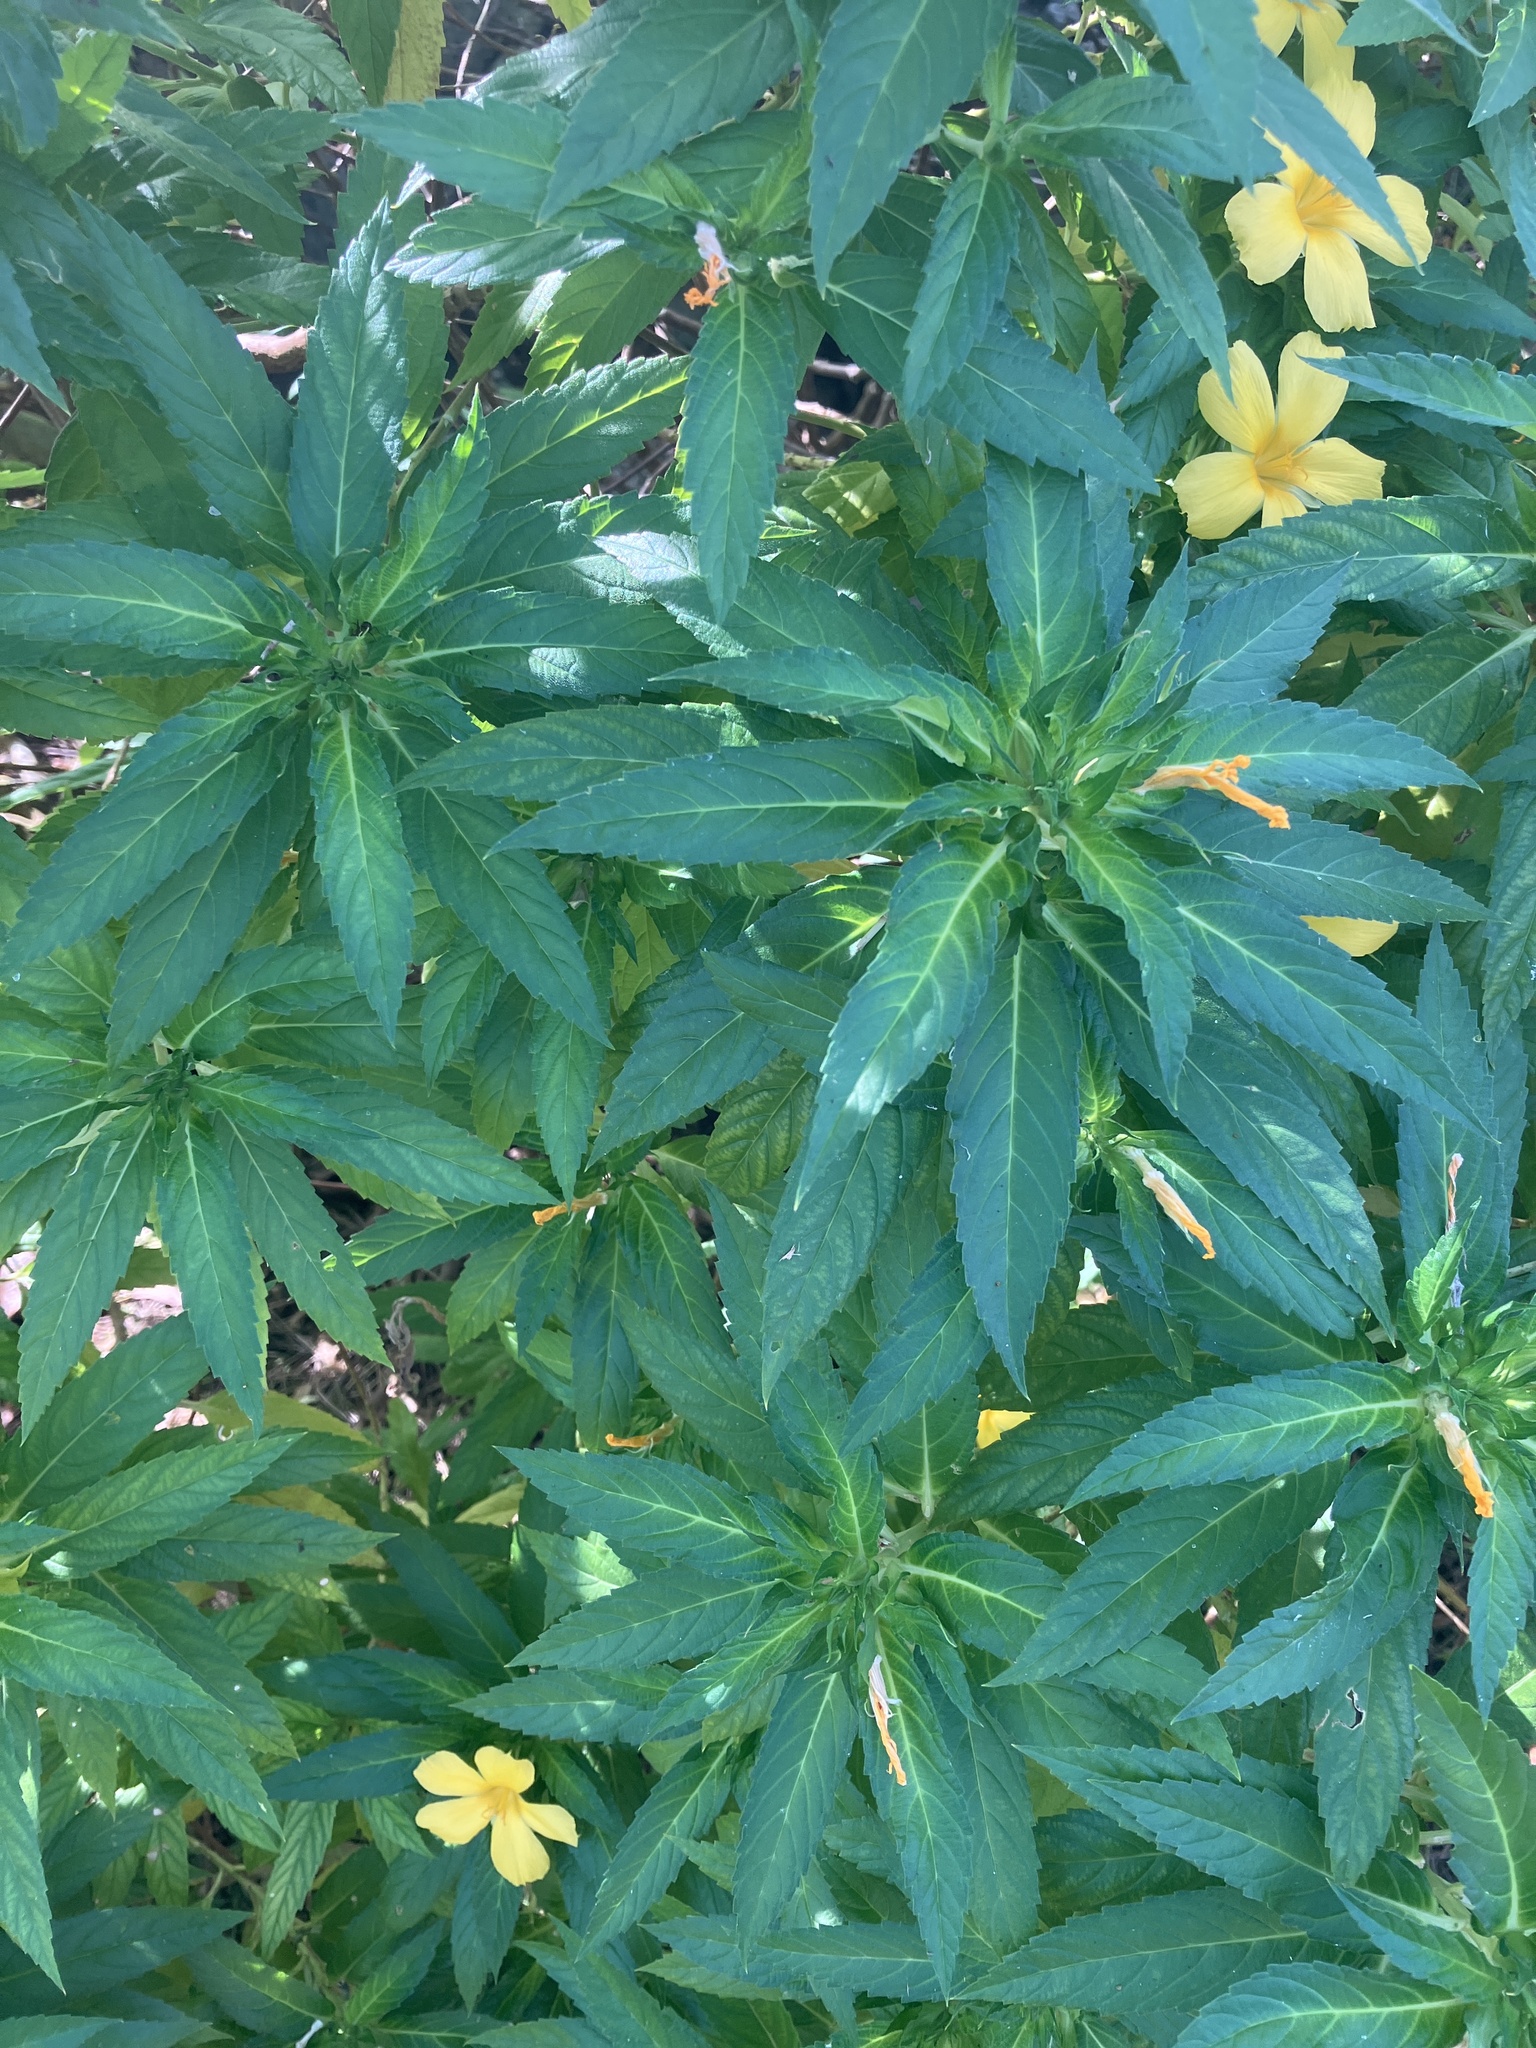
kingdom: Plantae
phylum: Tracheophyta
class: Magnoliopsida
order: Malpighiales
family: Turneraceae
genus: Turnera
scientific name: Turnera ulmifolia
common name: Ramgoat dashalong
